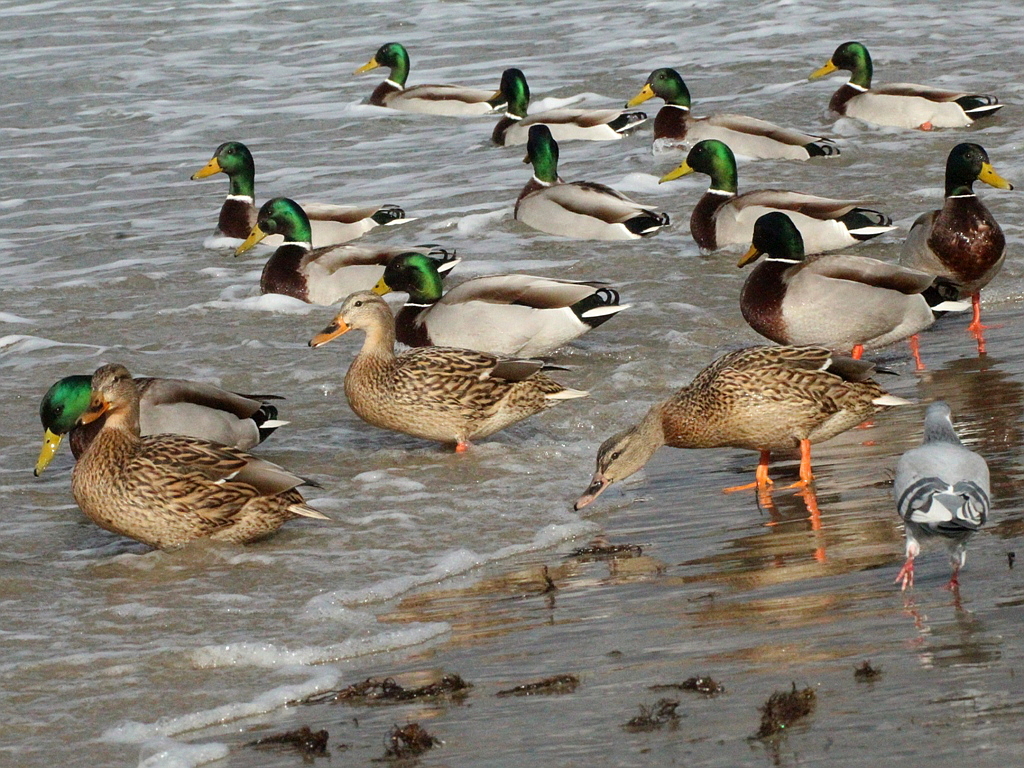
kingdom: Animalia
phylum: Chordata
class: Aves
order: Anseriformes
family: Anatidae
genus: Anas
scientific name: Anas platyrhynchos
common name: Mallard
